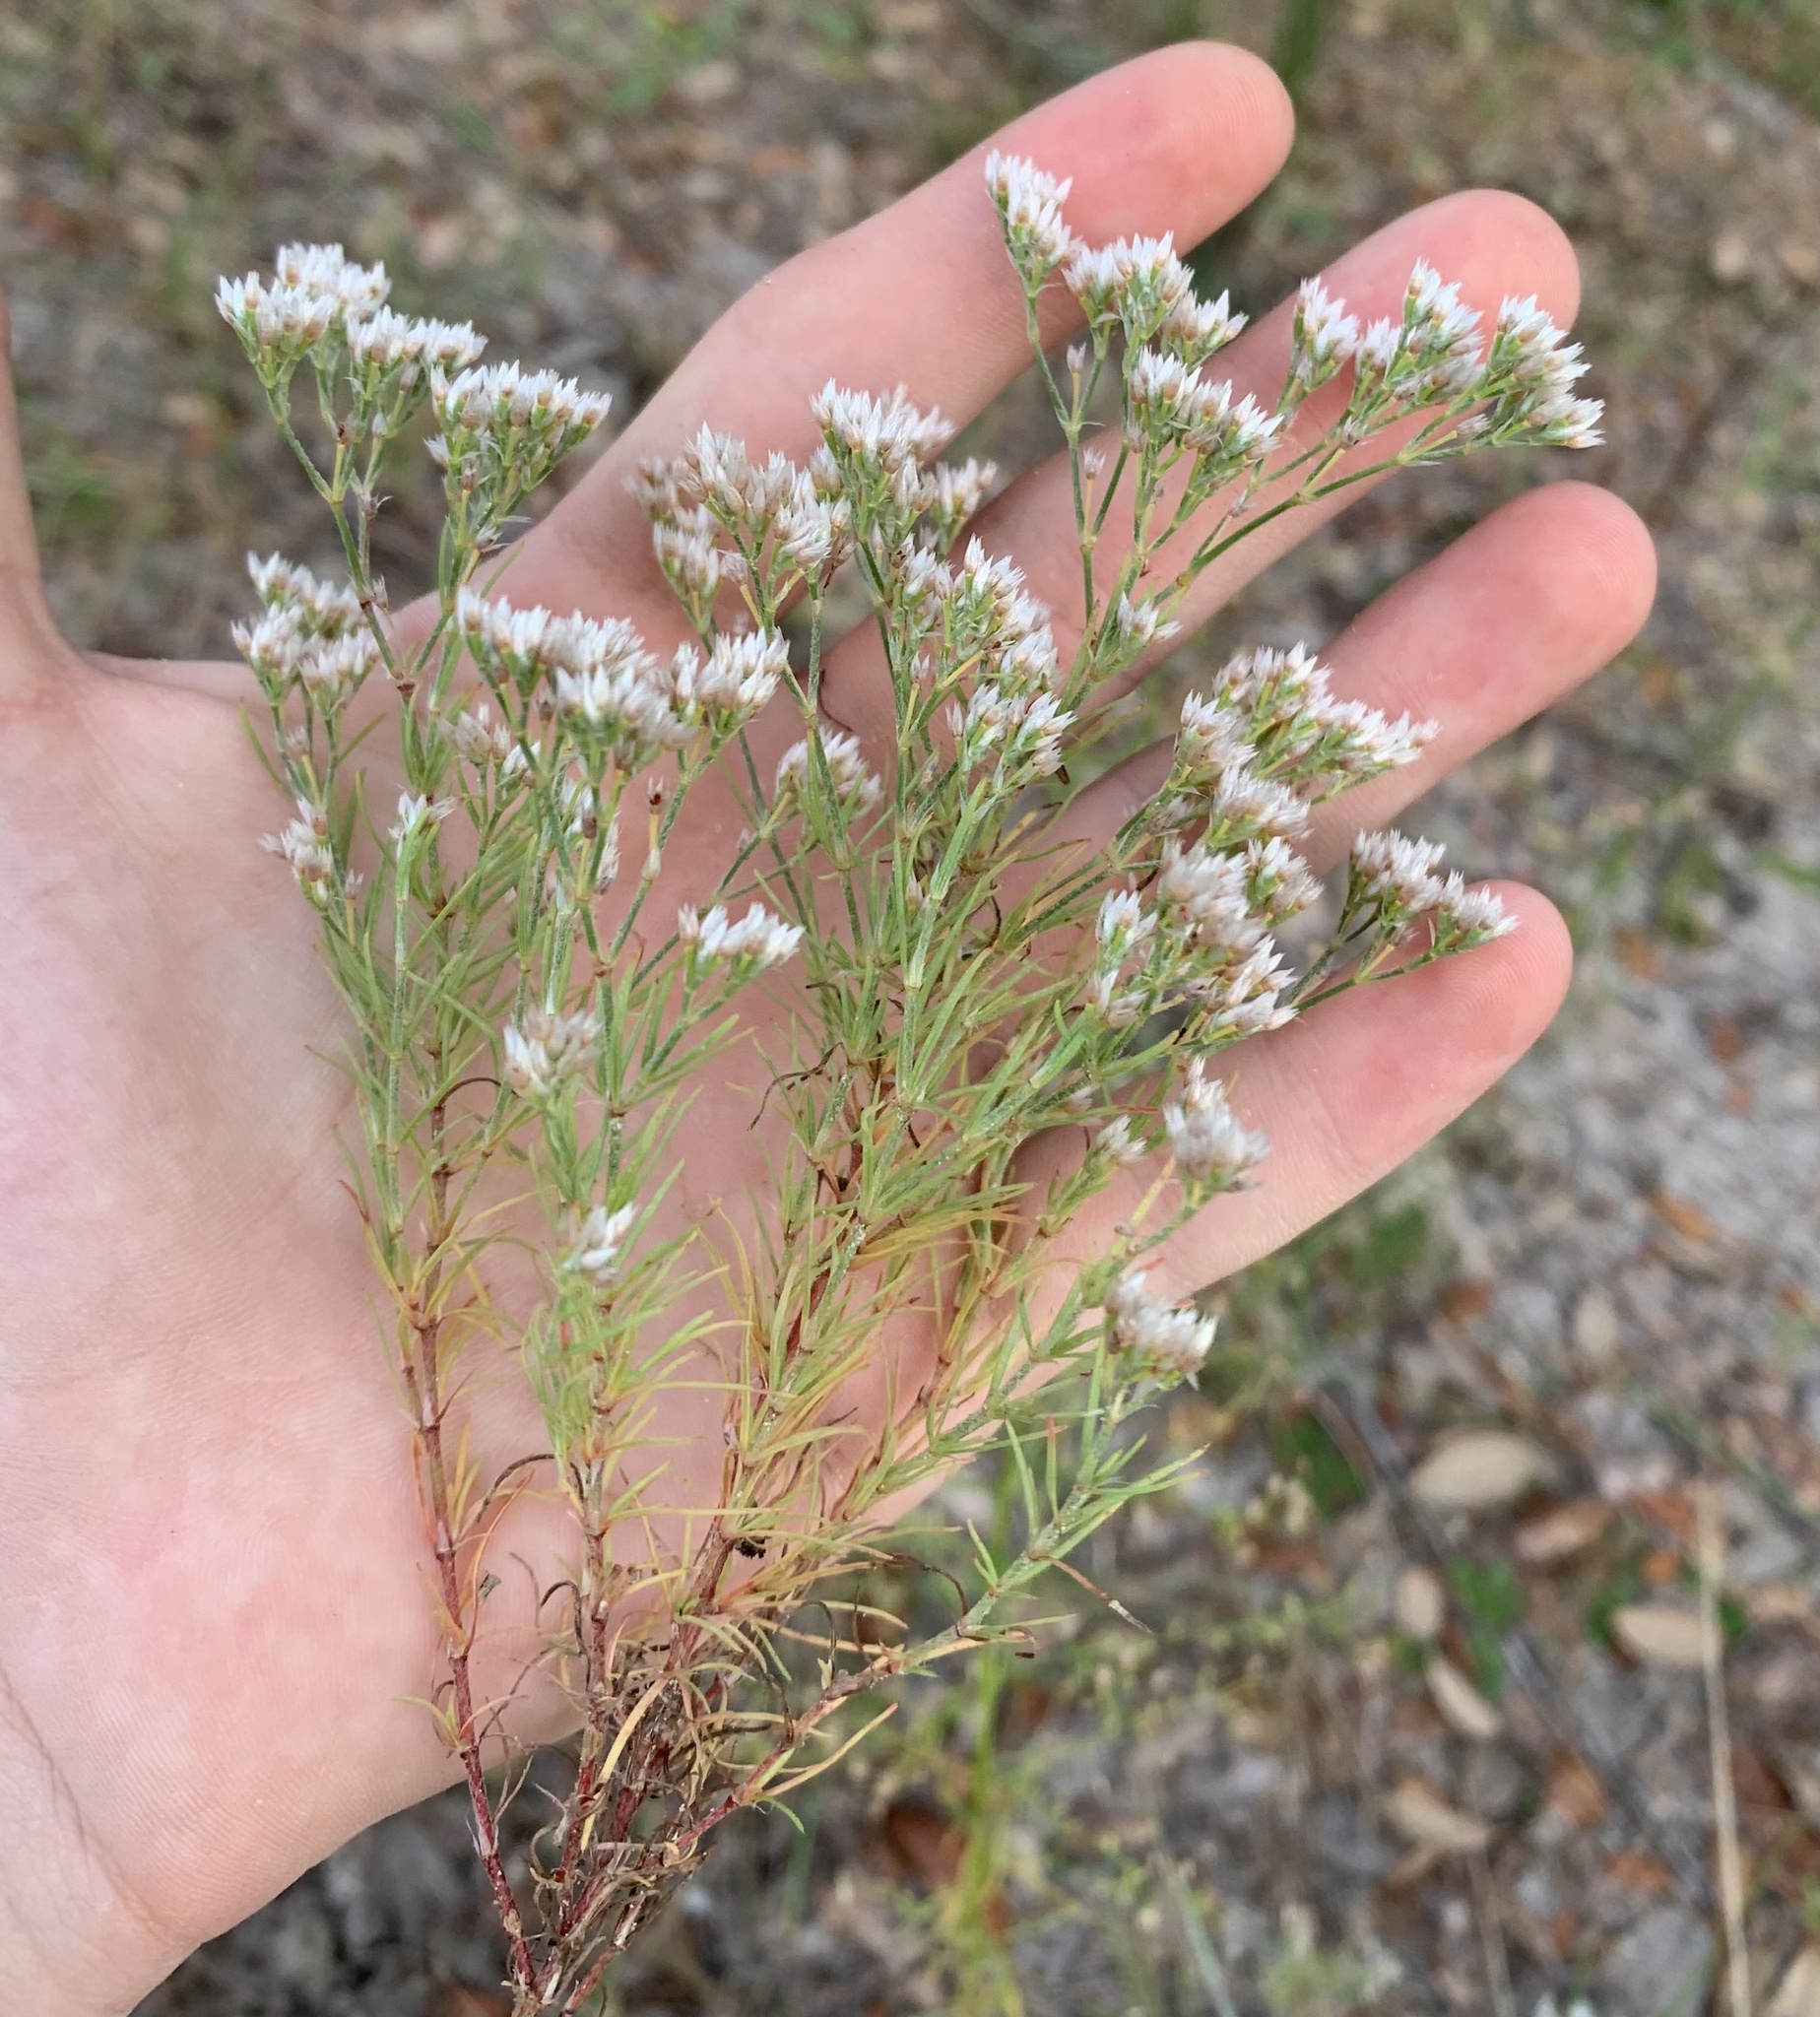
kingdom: Plantae
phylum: Tracheophyta
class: Magnoliopsida
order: Caryophyllales
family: Caryophyllaceae
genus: Polycarpaea
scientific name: Polycarpaea corymbosa
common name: Oldman's cap
